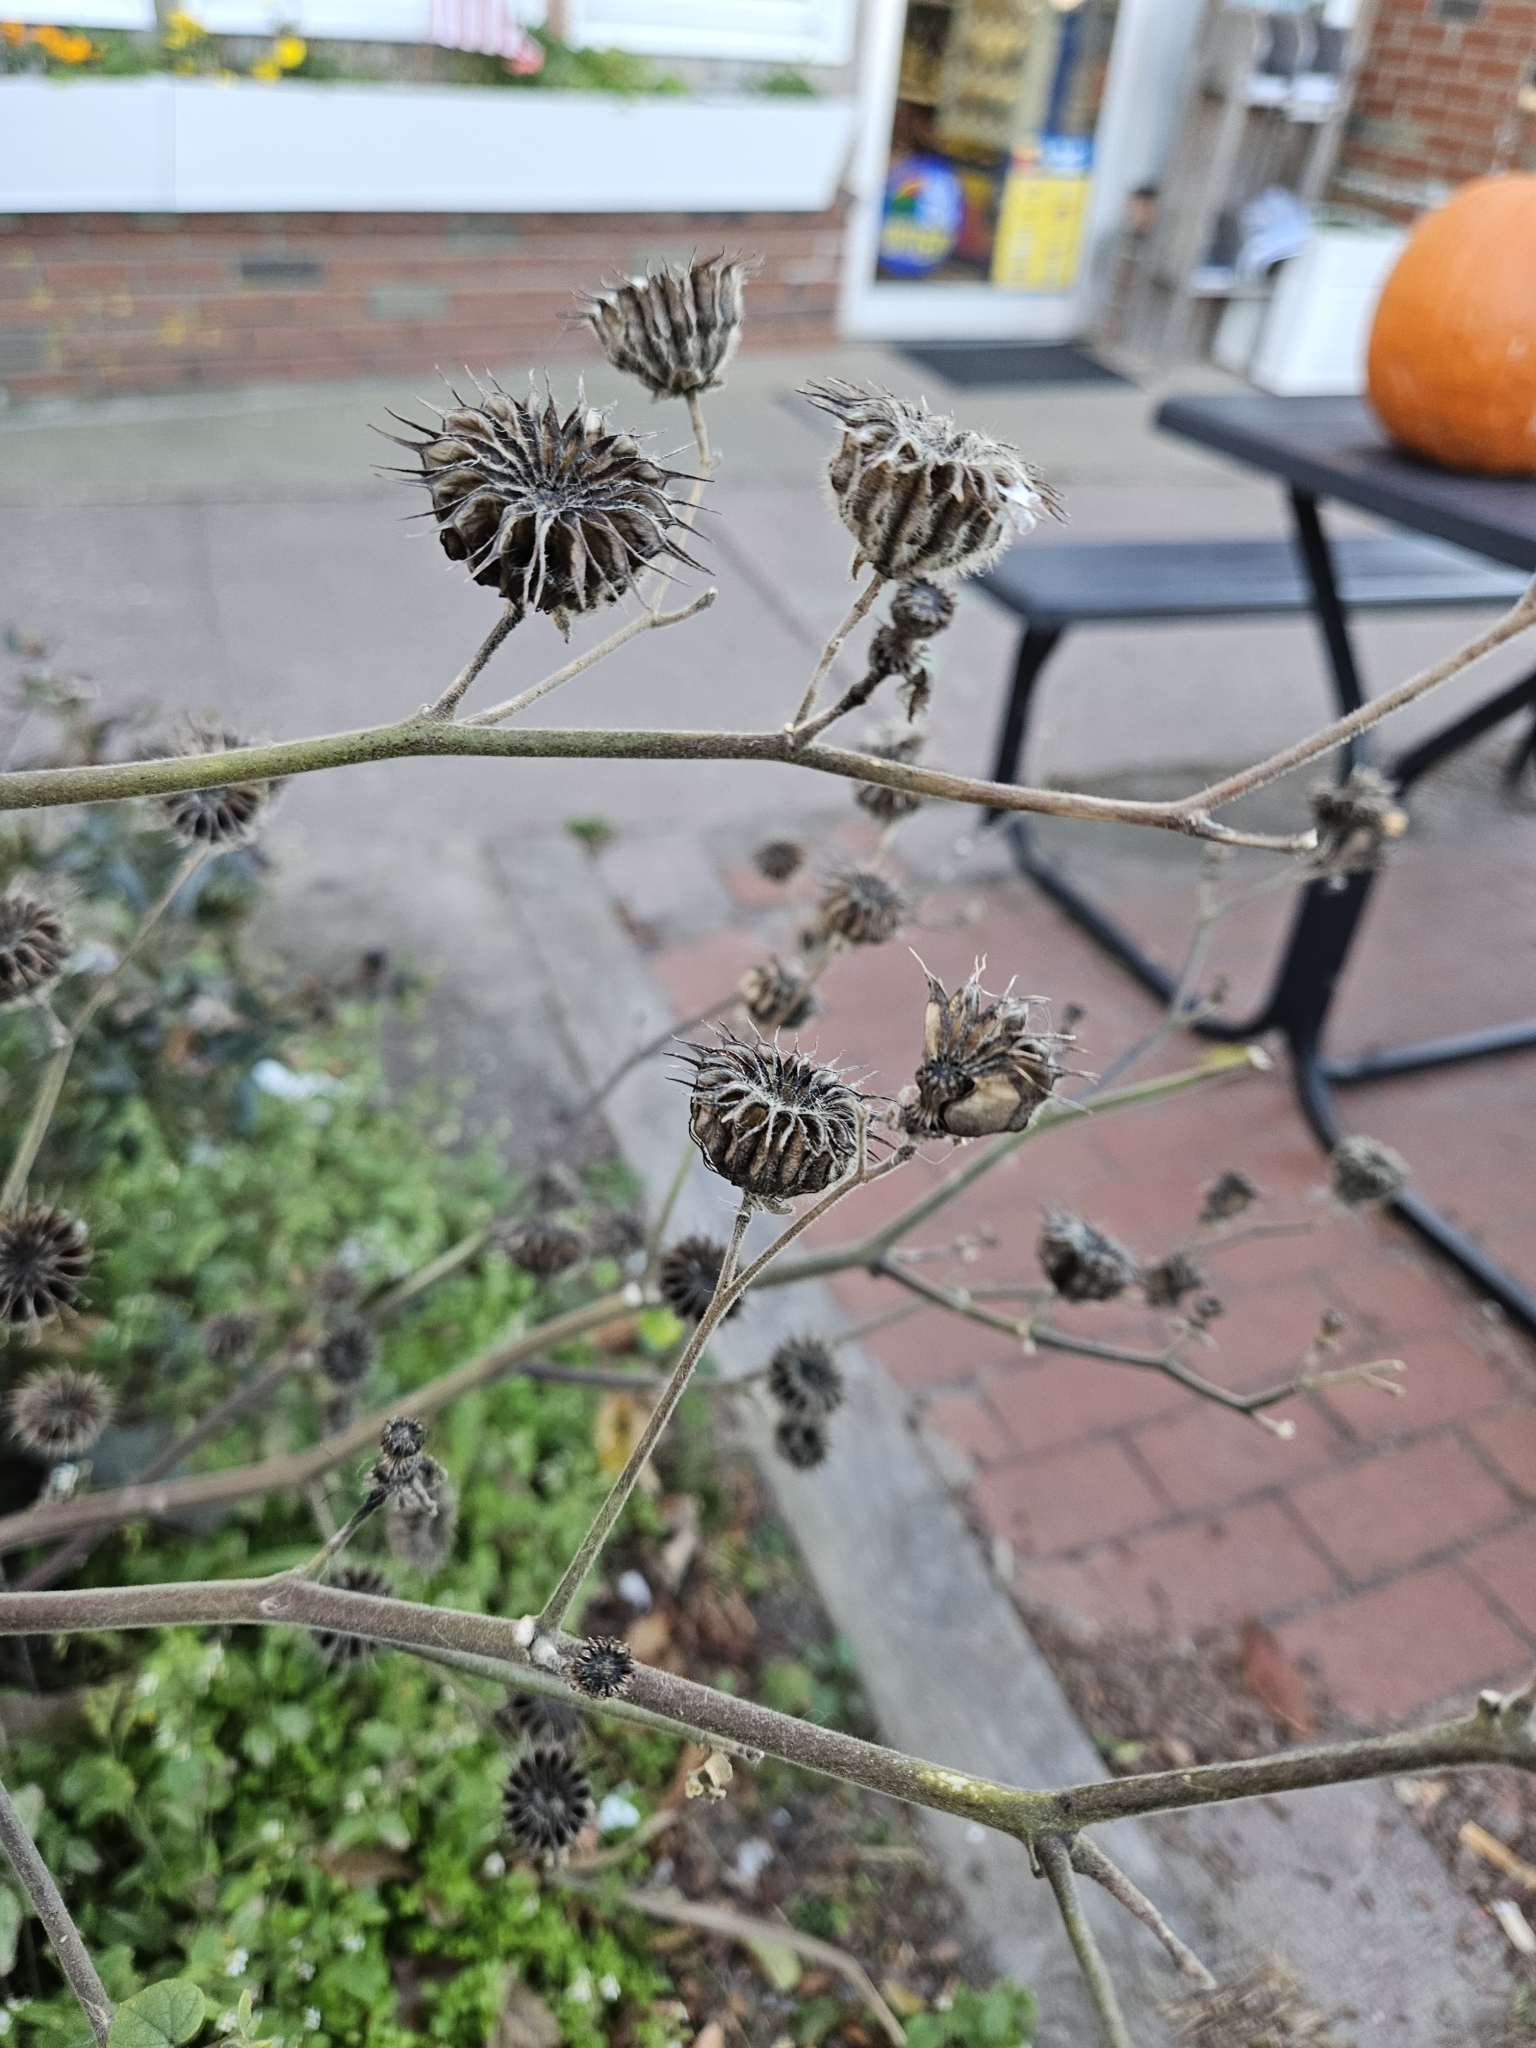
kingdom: Plantae
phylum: Tracheophyta
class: Magnoliopsida
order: Malvales
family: Malvaceae
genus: Abutilon
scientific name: Abutilon theophrasti
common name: Velvetleaf
